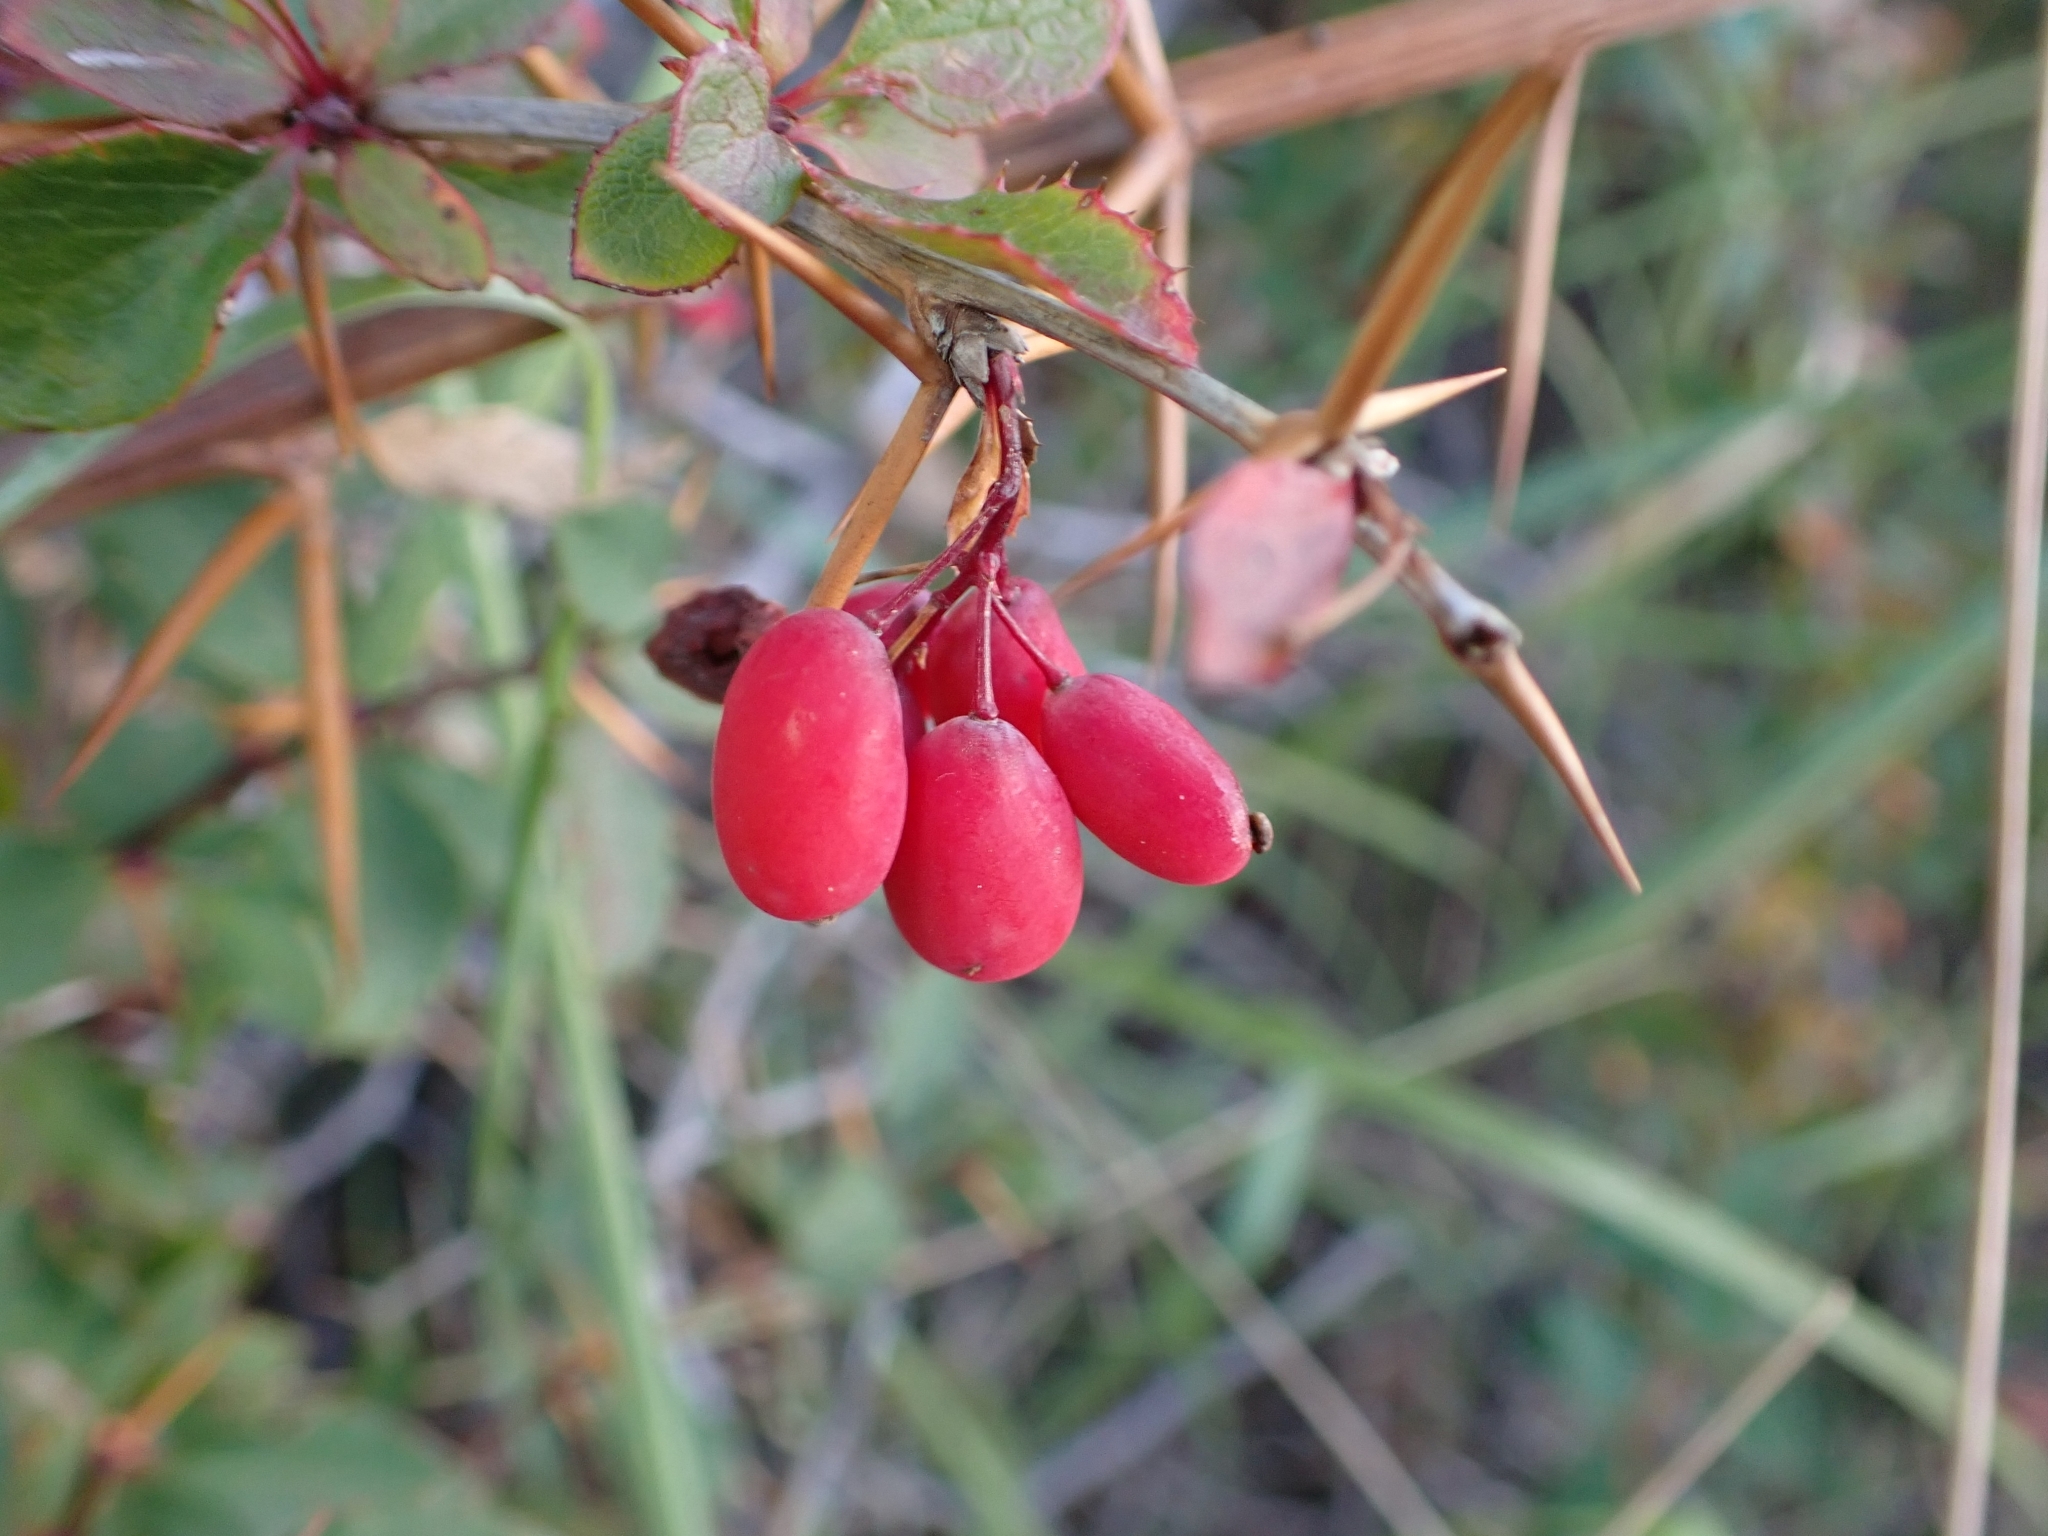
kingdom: Plantae
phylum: Tracheophyta
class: Magnoliopsida
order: Ranunculales
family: Berberidaceae
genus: Berberis
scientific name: Berberis aetnensis
